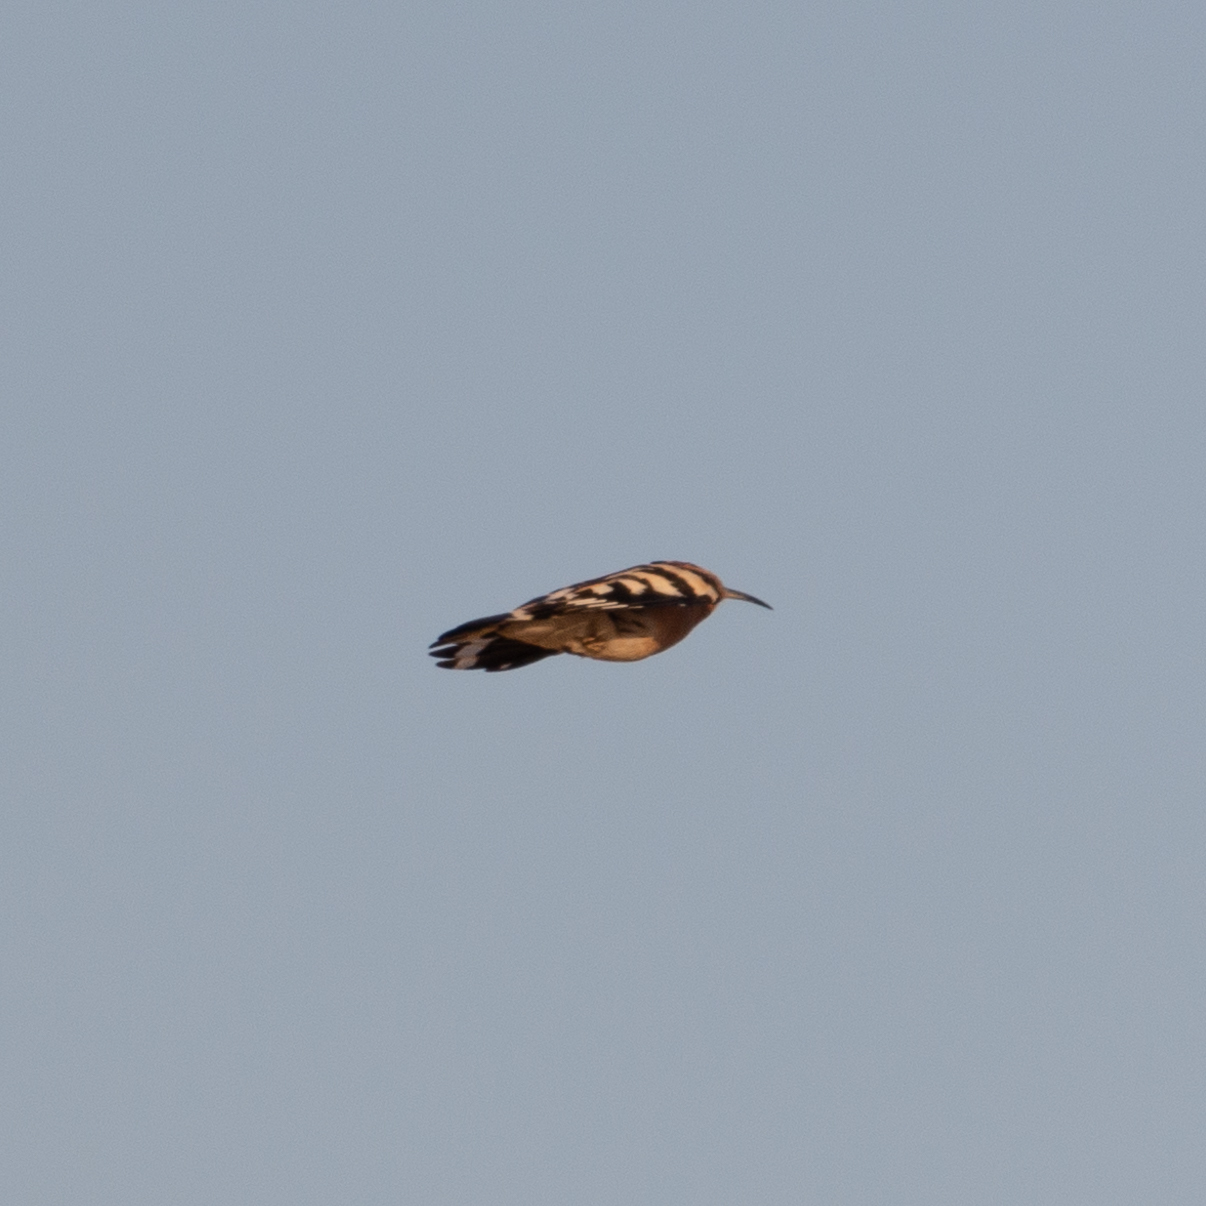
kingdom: Animalia
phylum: Chordata
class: Aves
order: Bucerotiformes
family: Upupidae
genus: Upupa
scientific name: Upupa epops
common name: Eurasian hoopoe
